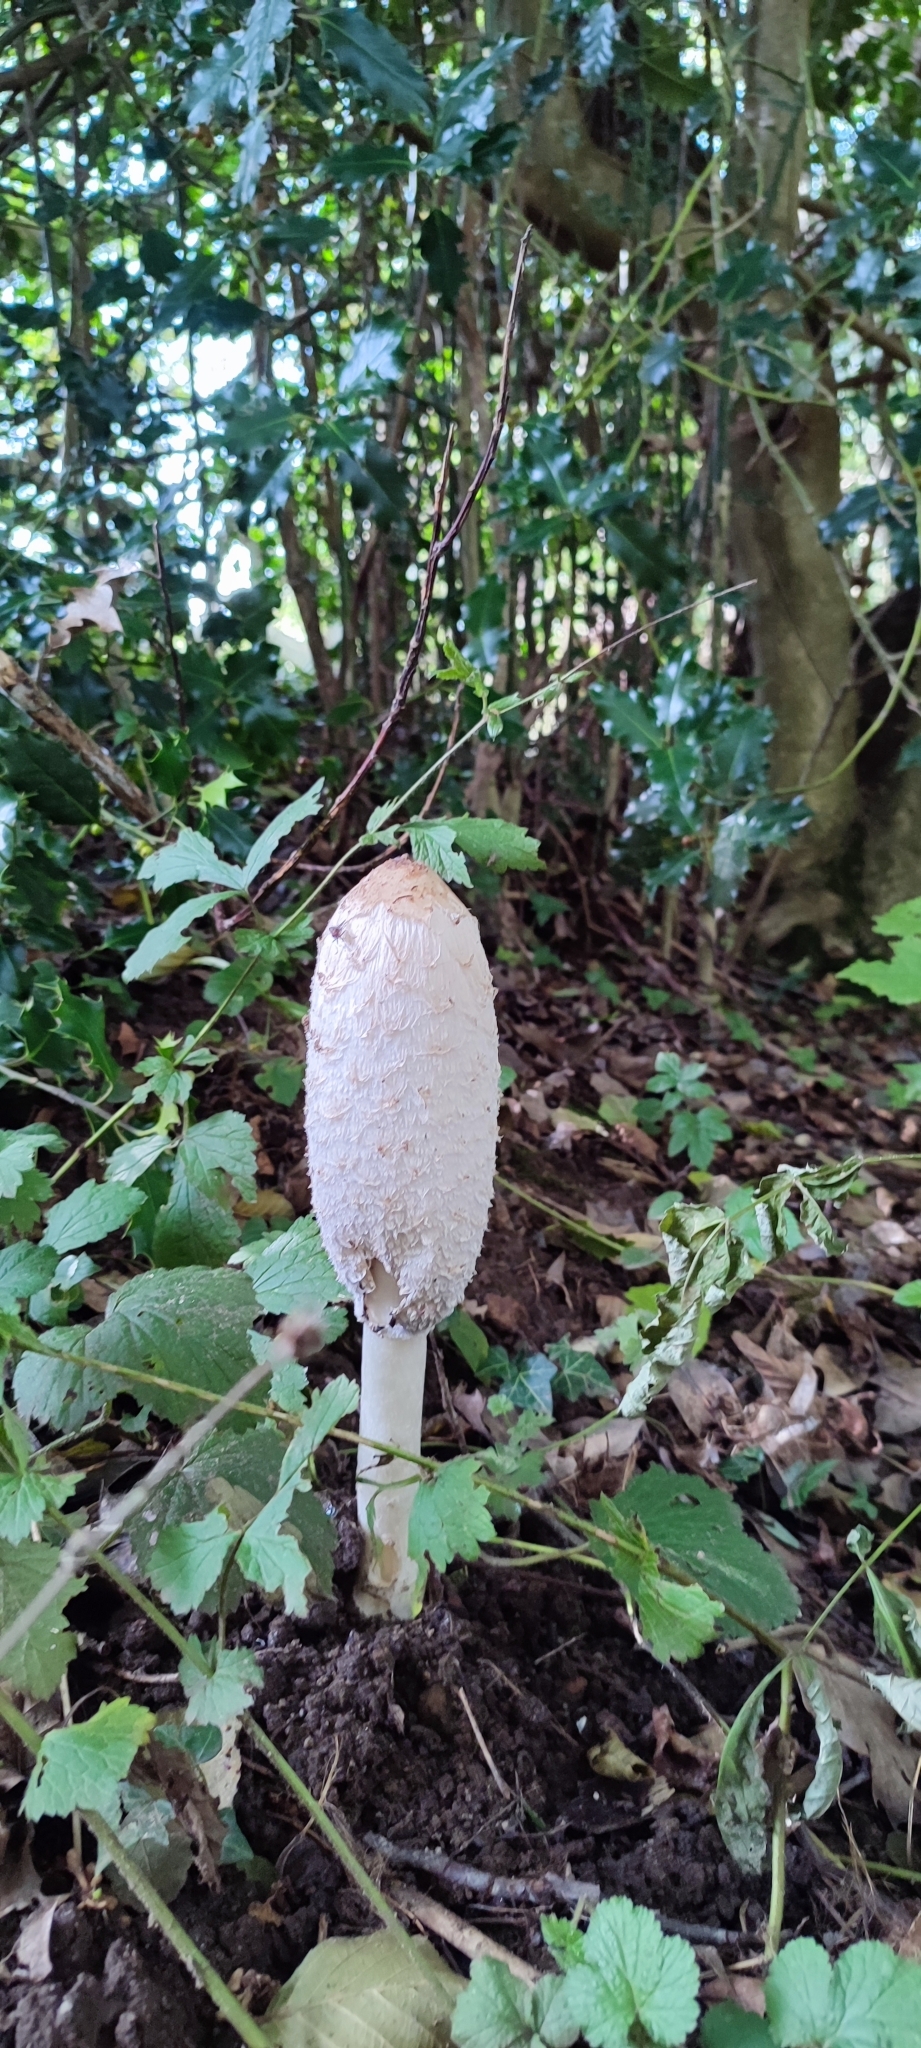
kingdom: Fungi
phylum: Basidiomycota
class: Agaricomycetes
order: Agaricales
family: Agaricaceae
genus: Coprinus
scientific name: Coprinus comatus
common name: Lawyer's wig
